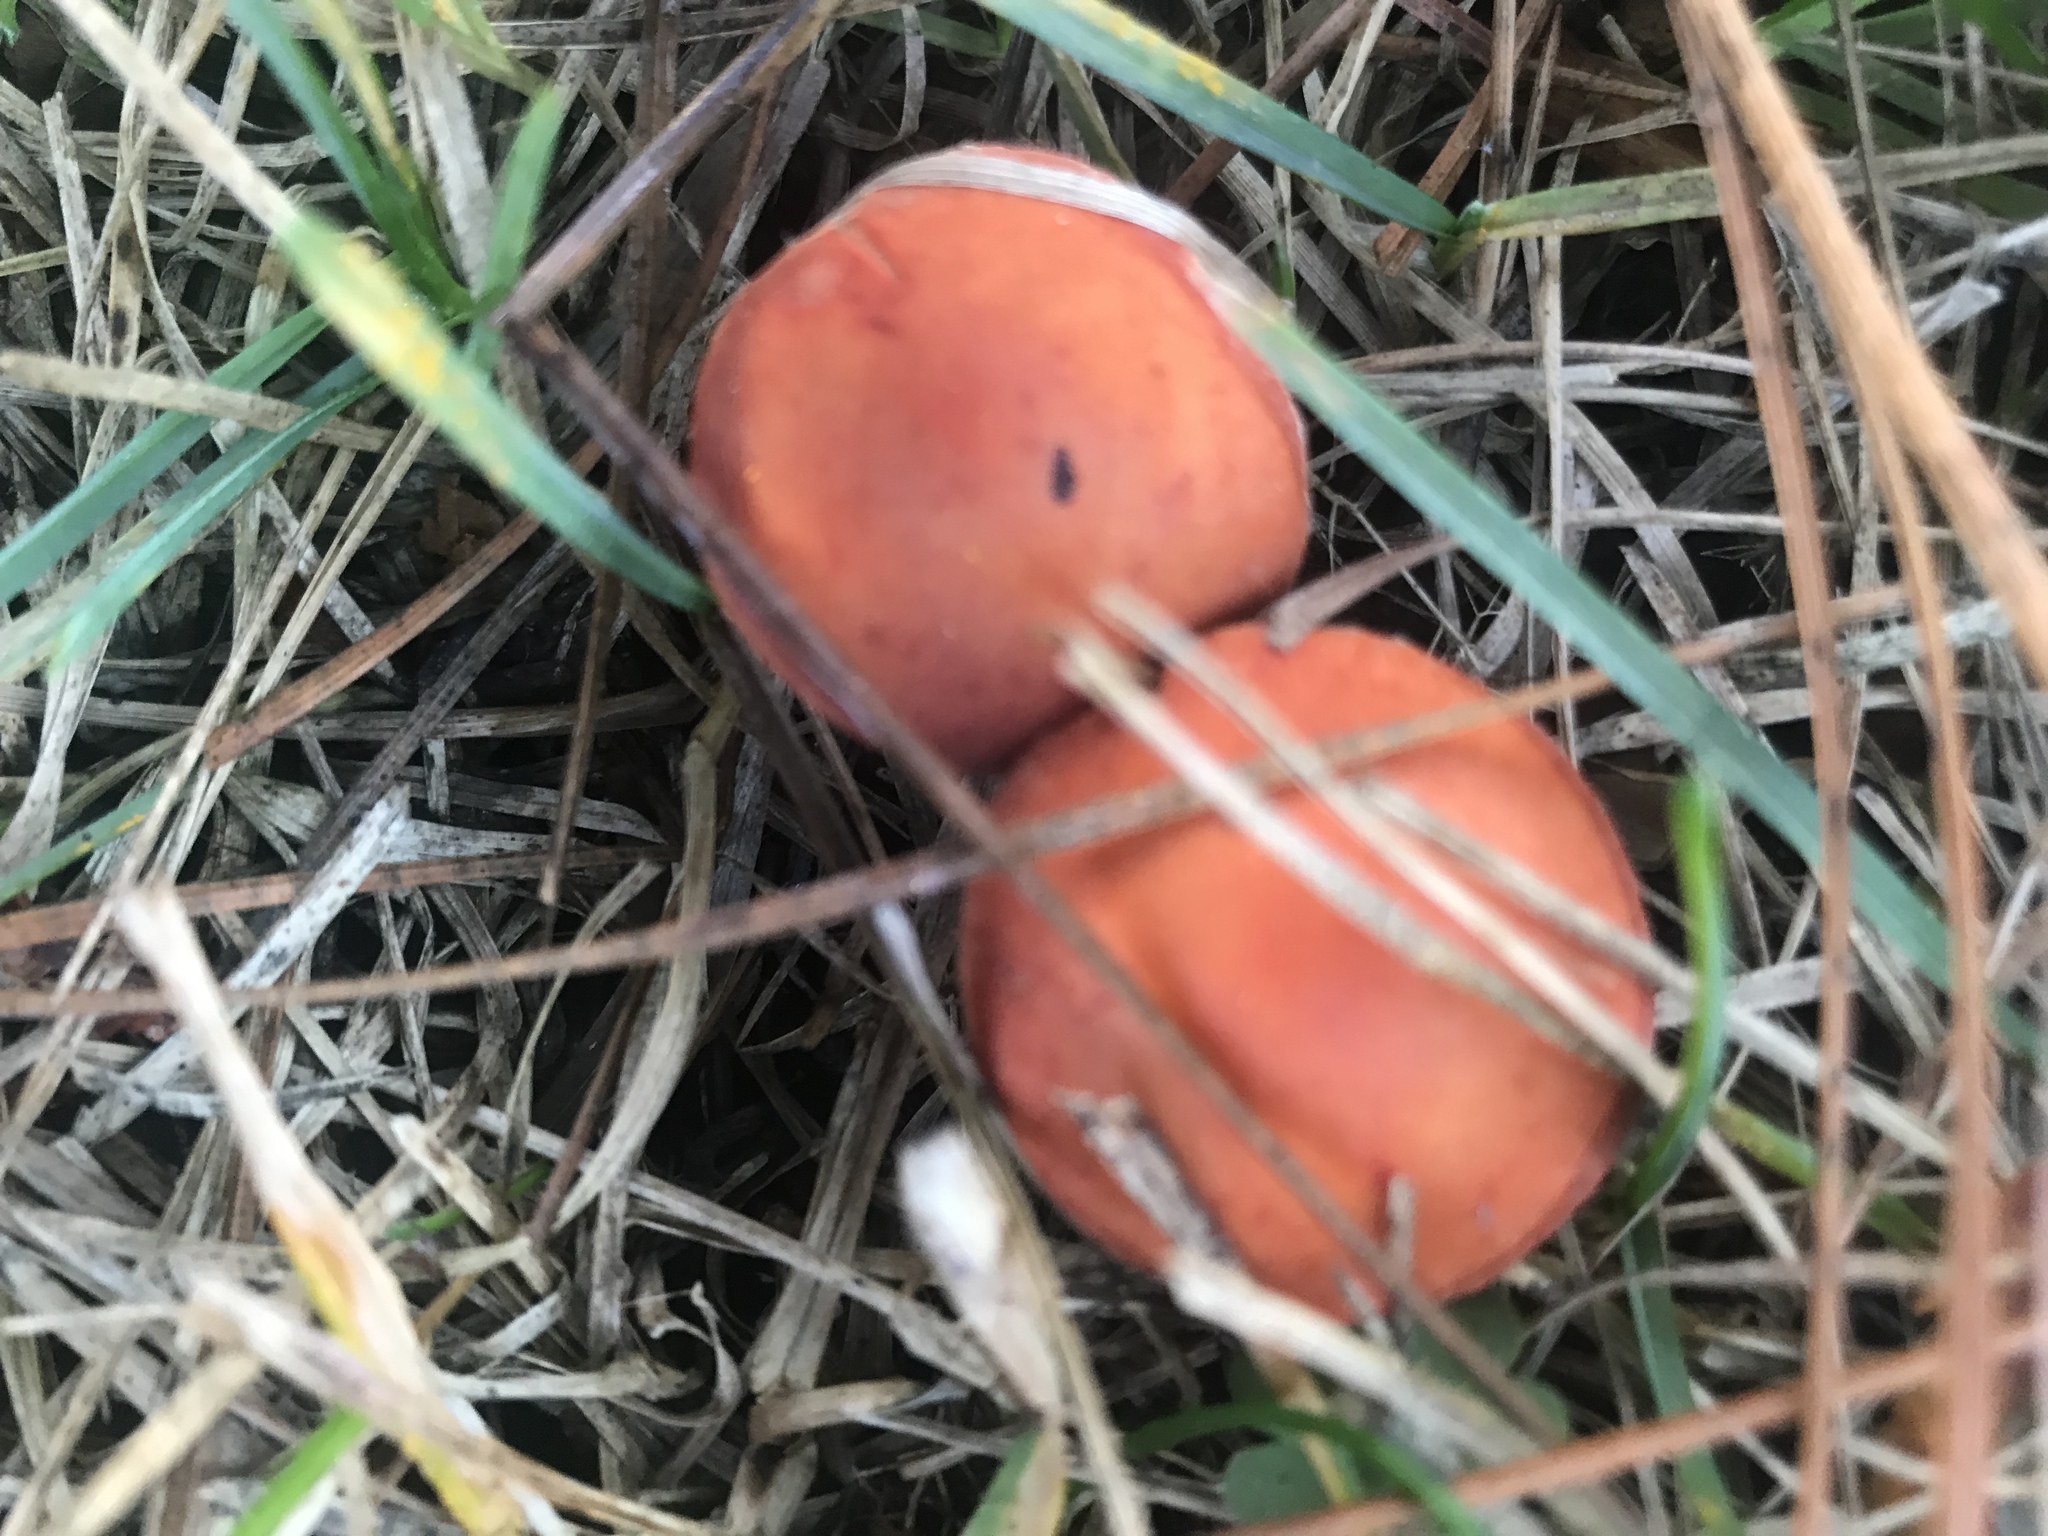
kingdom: Fungi
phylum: Basidiomycota
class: Agaricomycetes
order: Agaricales
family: Strophariaceae
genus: Leratiomyces
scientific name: Leratiomyces ceres
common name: Redlead roundhead
